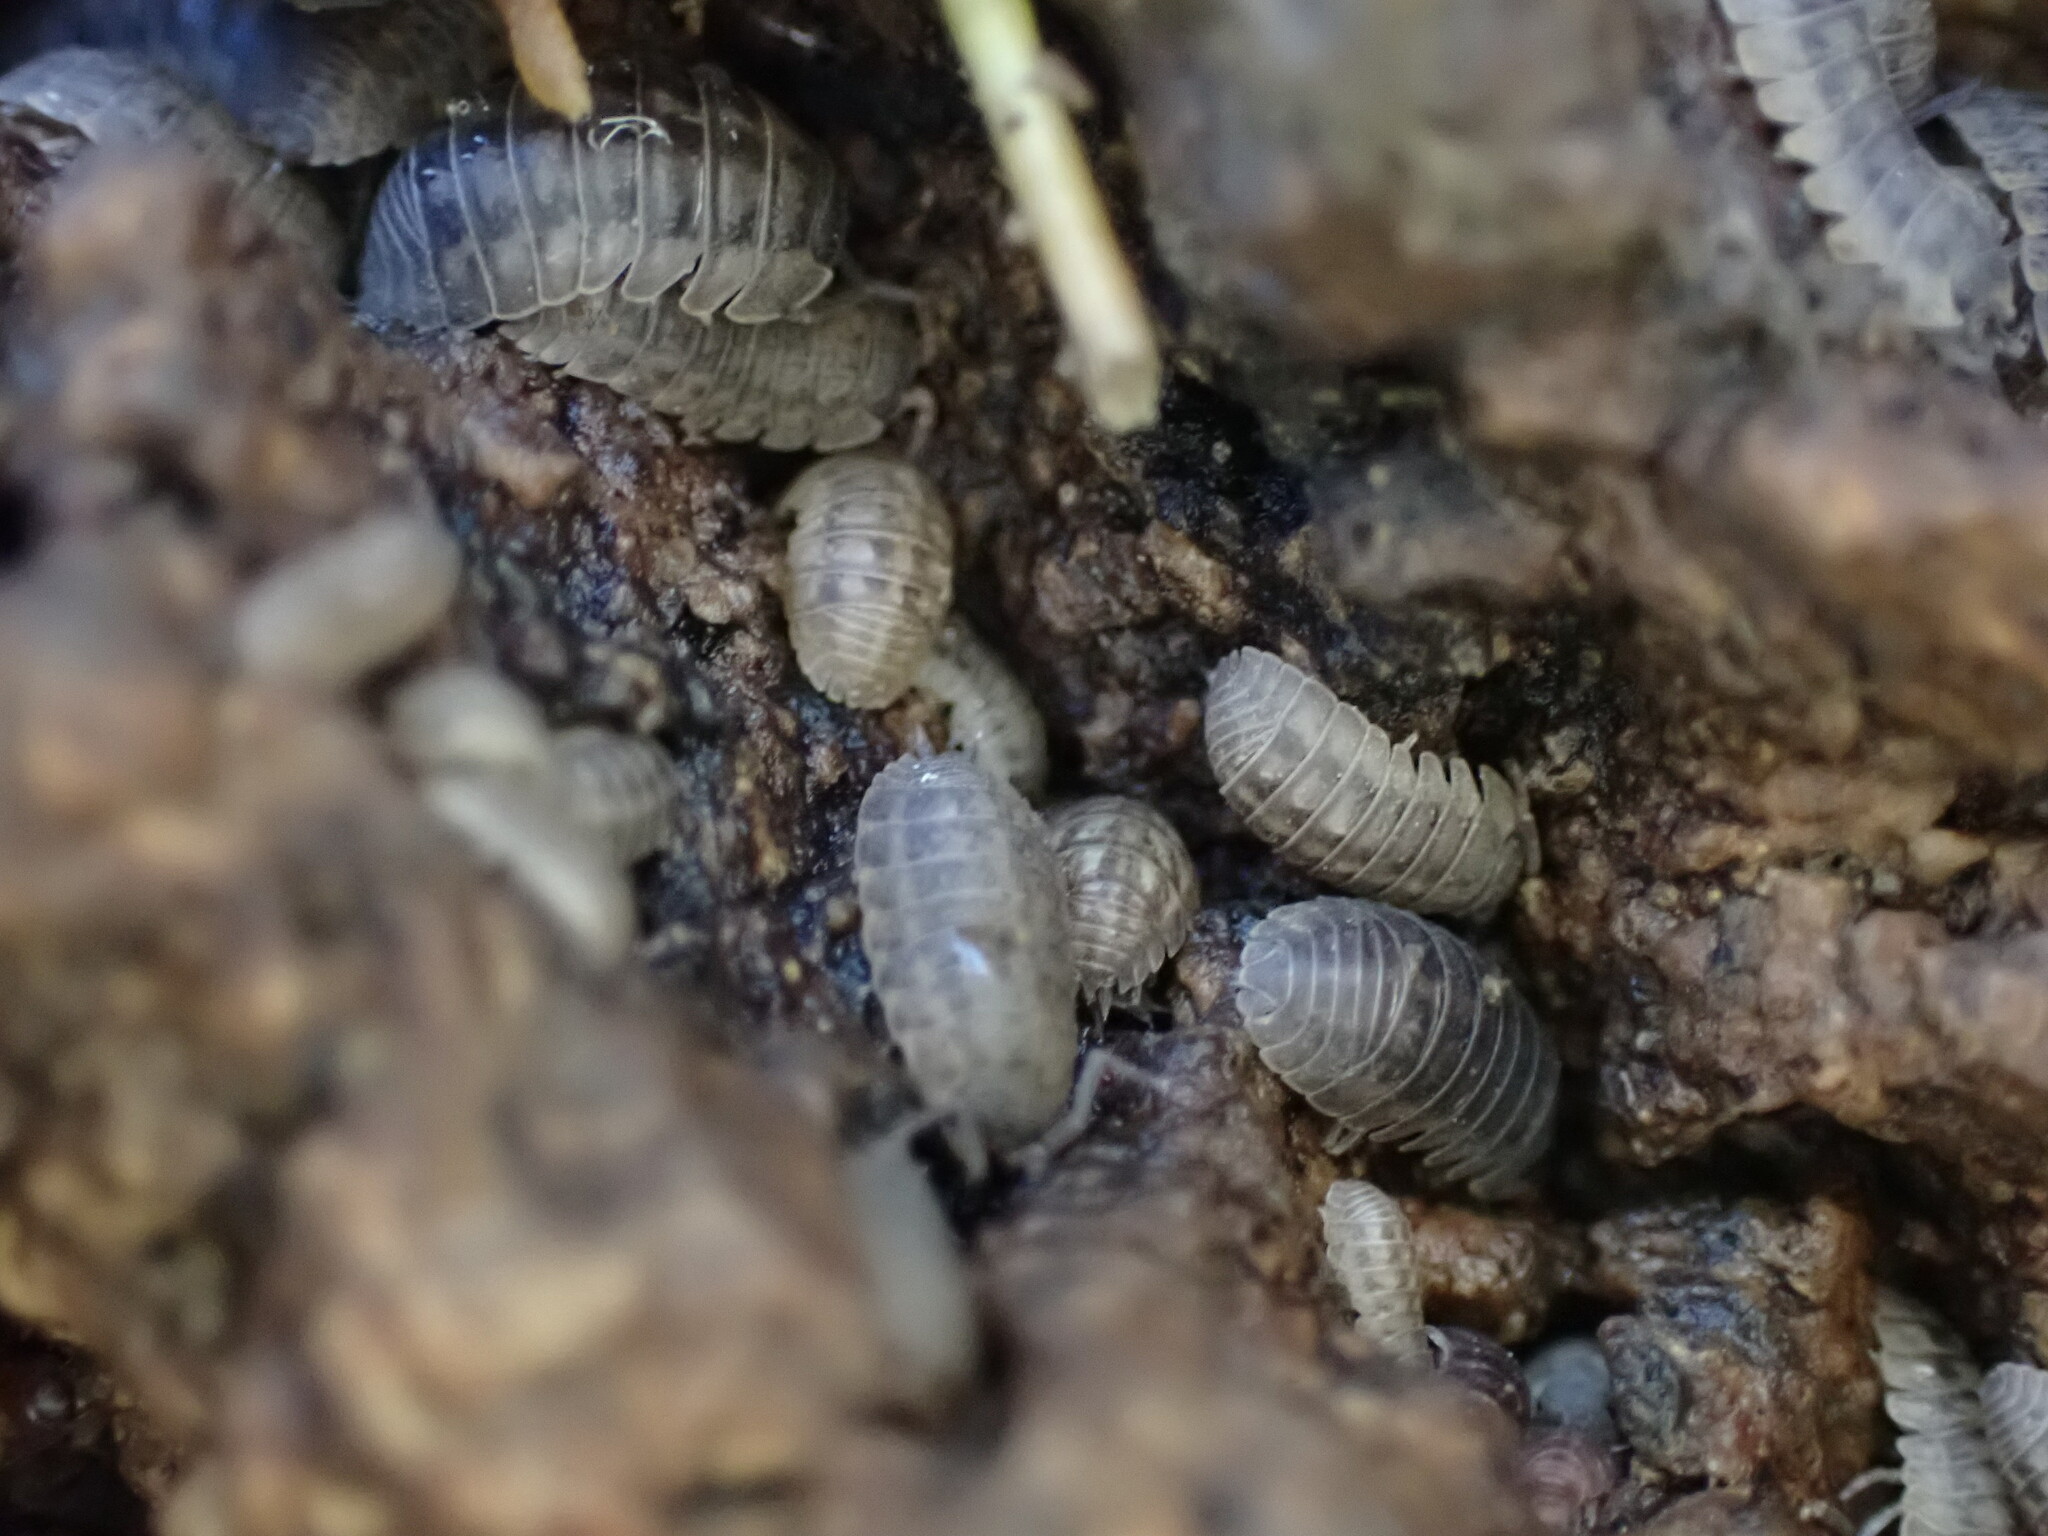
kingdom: Animalia
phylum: Arthropoda
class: Malacostraca
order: Isopoda
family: Armadillidiidae
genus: Armadillidium
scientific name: Armadillidium nasatum
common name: Isopod
